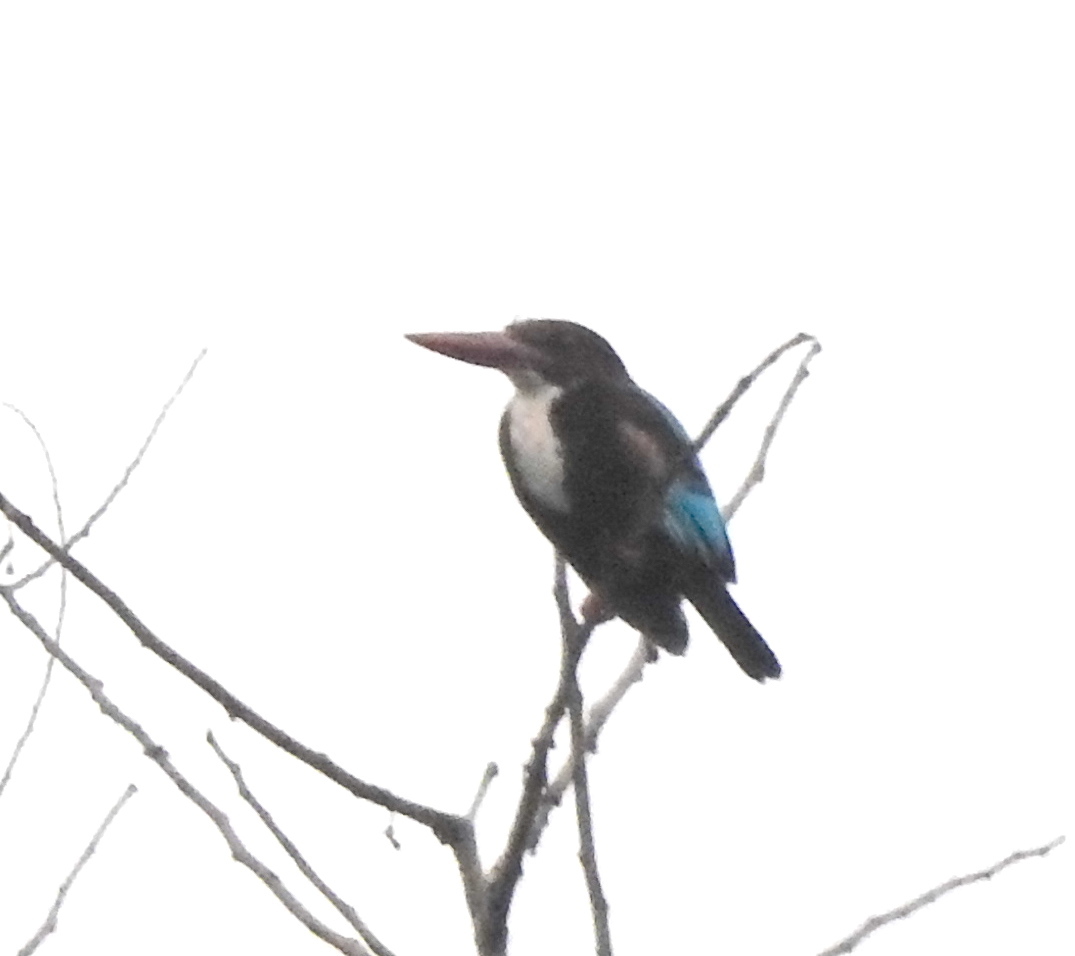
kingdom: Animalia
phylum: Chordata
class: Aves
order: Coraciiformes
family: Alcedinidae
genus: Halcyon
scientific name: Halcyon smyrnensis
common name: White-throated kingfisher
